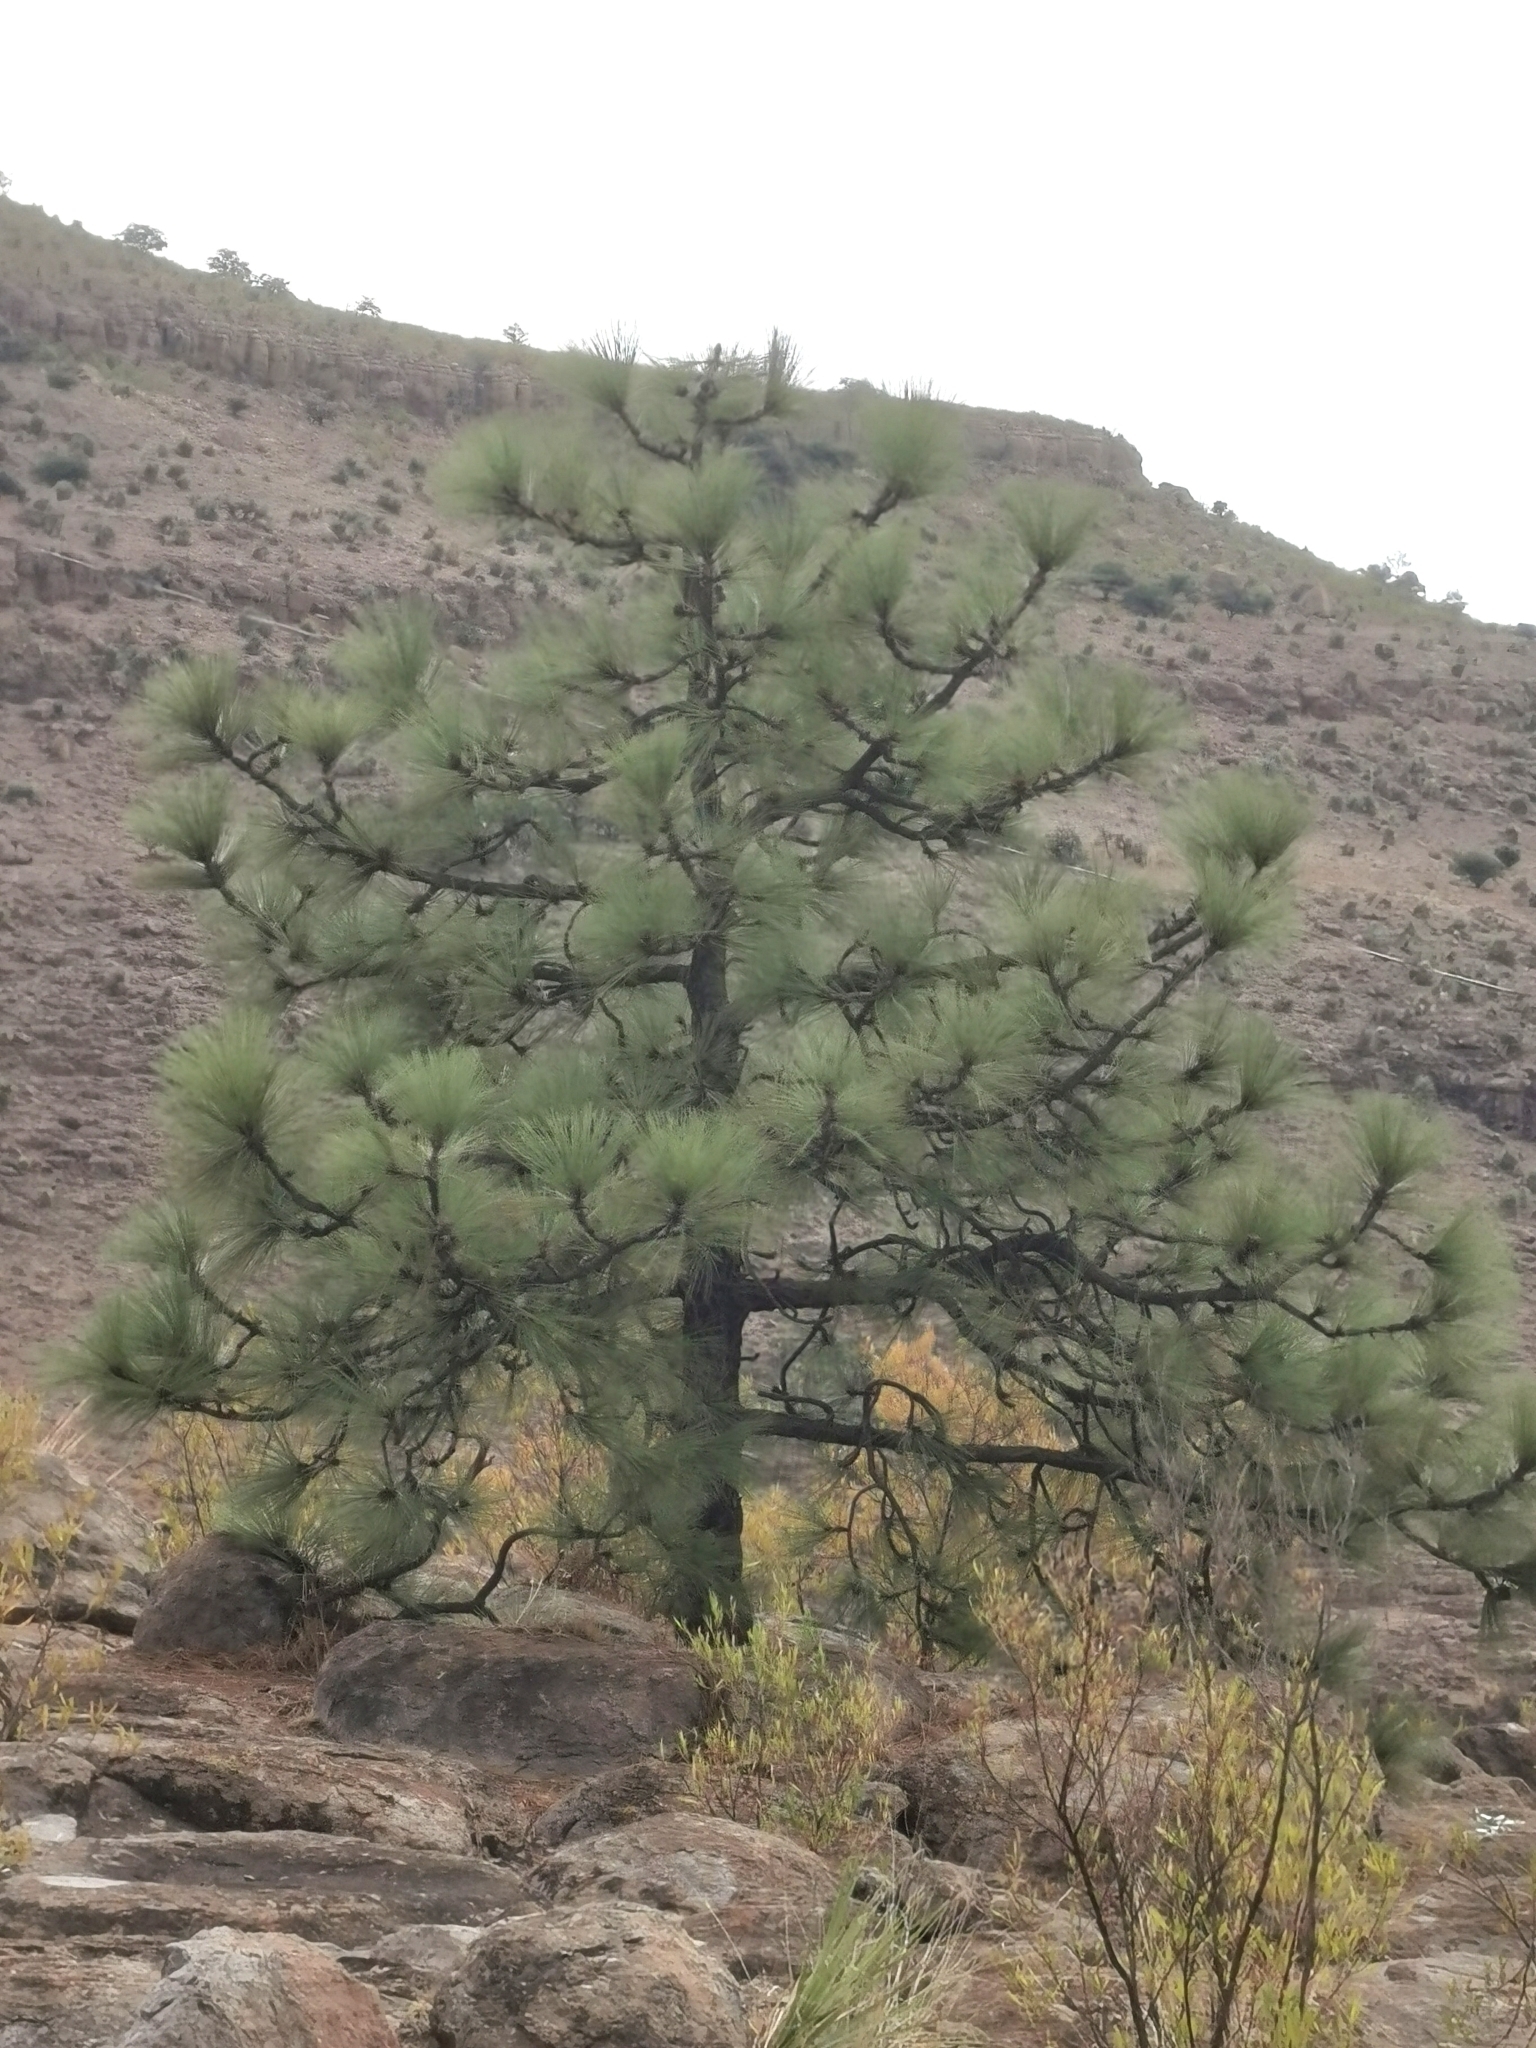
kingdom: Plantae
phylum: Tracheophyta
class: Pinopsida
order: Pinales
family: Pinaceae
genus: Pinus
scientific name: Pinus engelmannii
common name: Apache pine
